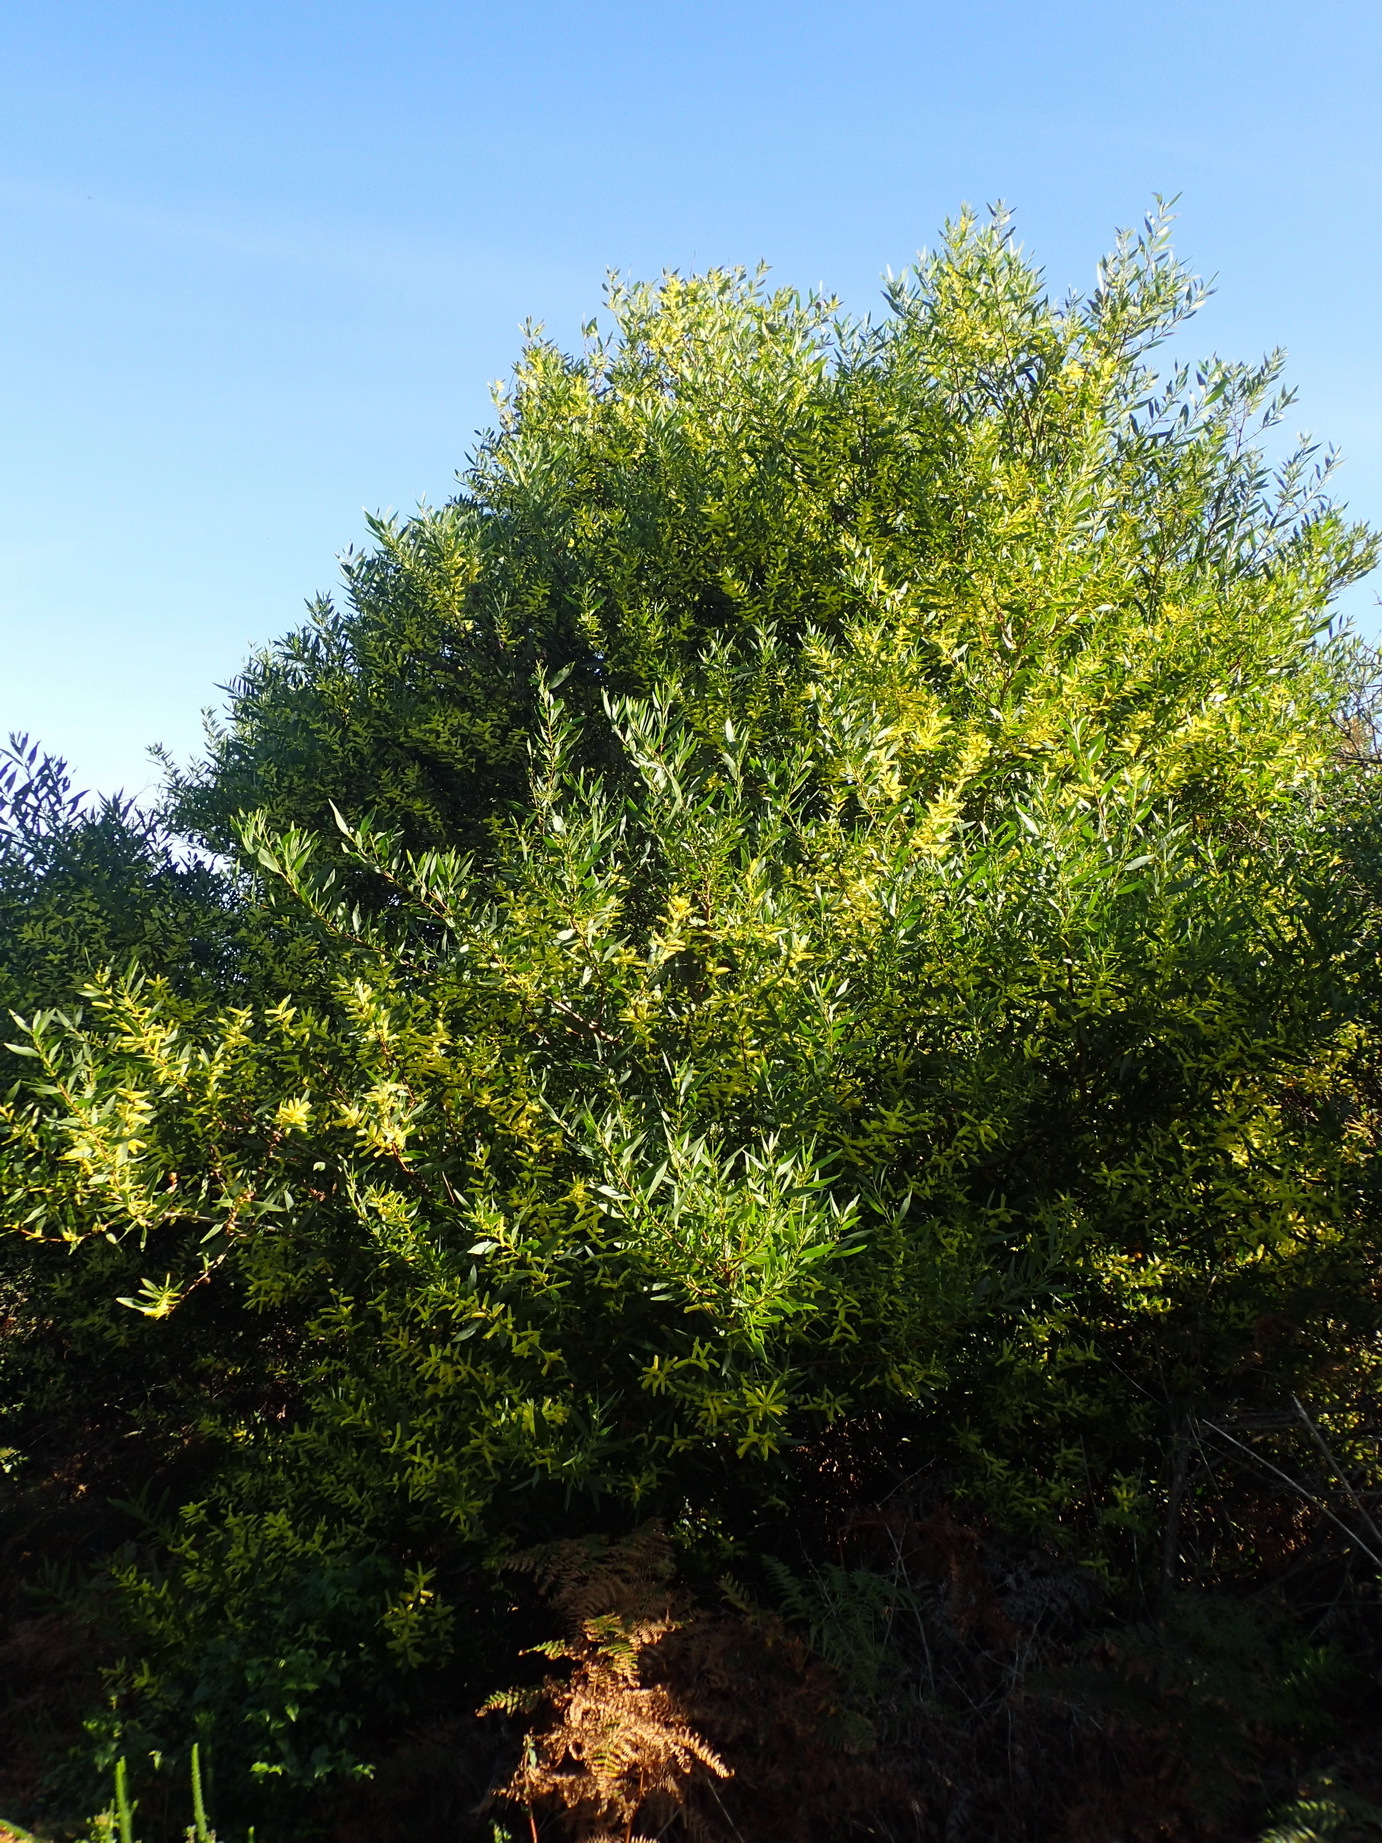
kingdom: Plantae
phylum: Tracheophyta
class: Magnoliopsida
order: Fabales
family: Fabaceae
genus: Acacia
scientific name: Acacia longifolia
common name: Sydney golden wattle
